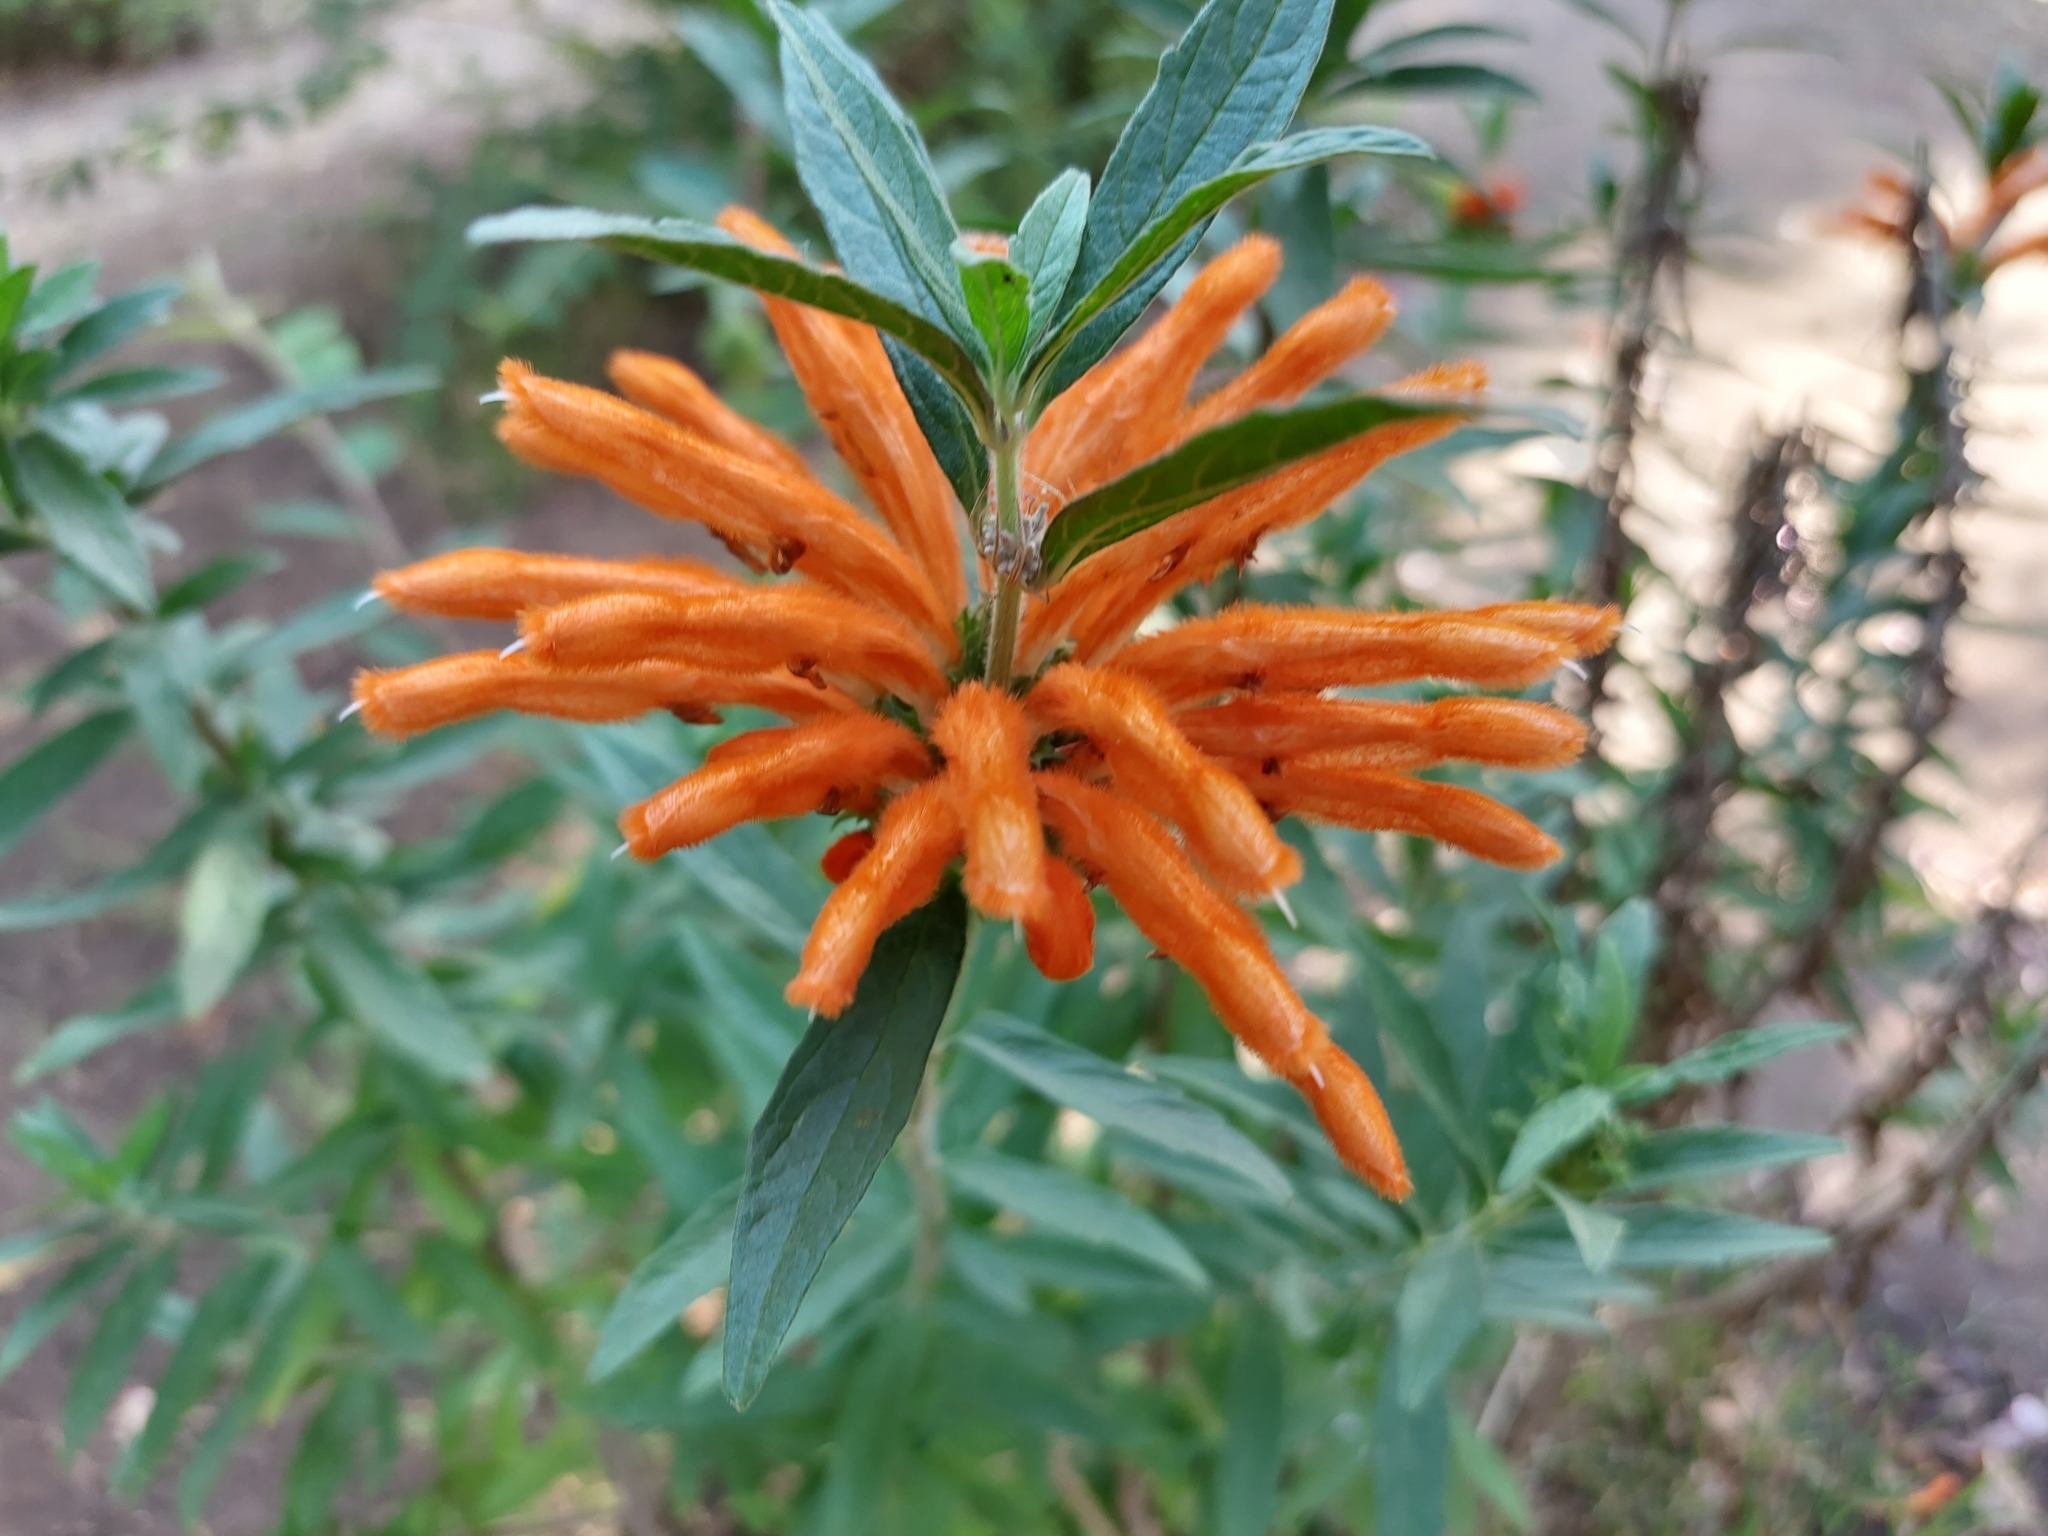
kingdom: Plantae
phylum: Tracheophyta
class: Magnoliopsida
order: Lamiales
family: Lamiaceae
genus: Leonotis
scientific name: Leonotis leonurus
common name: Lion's ear
